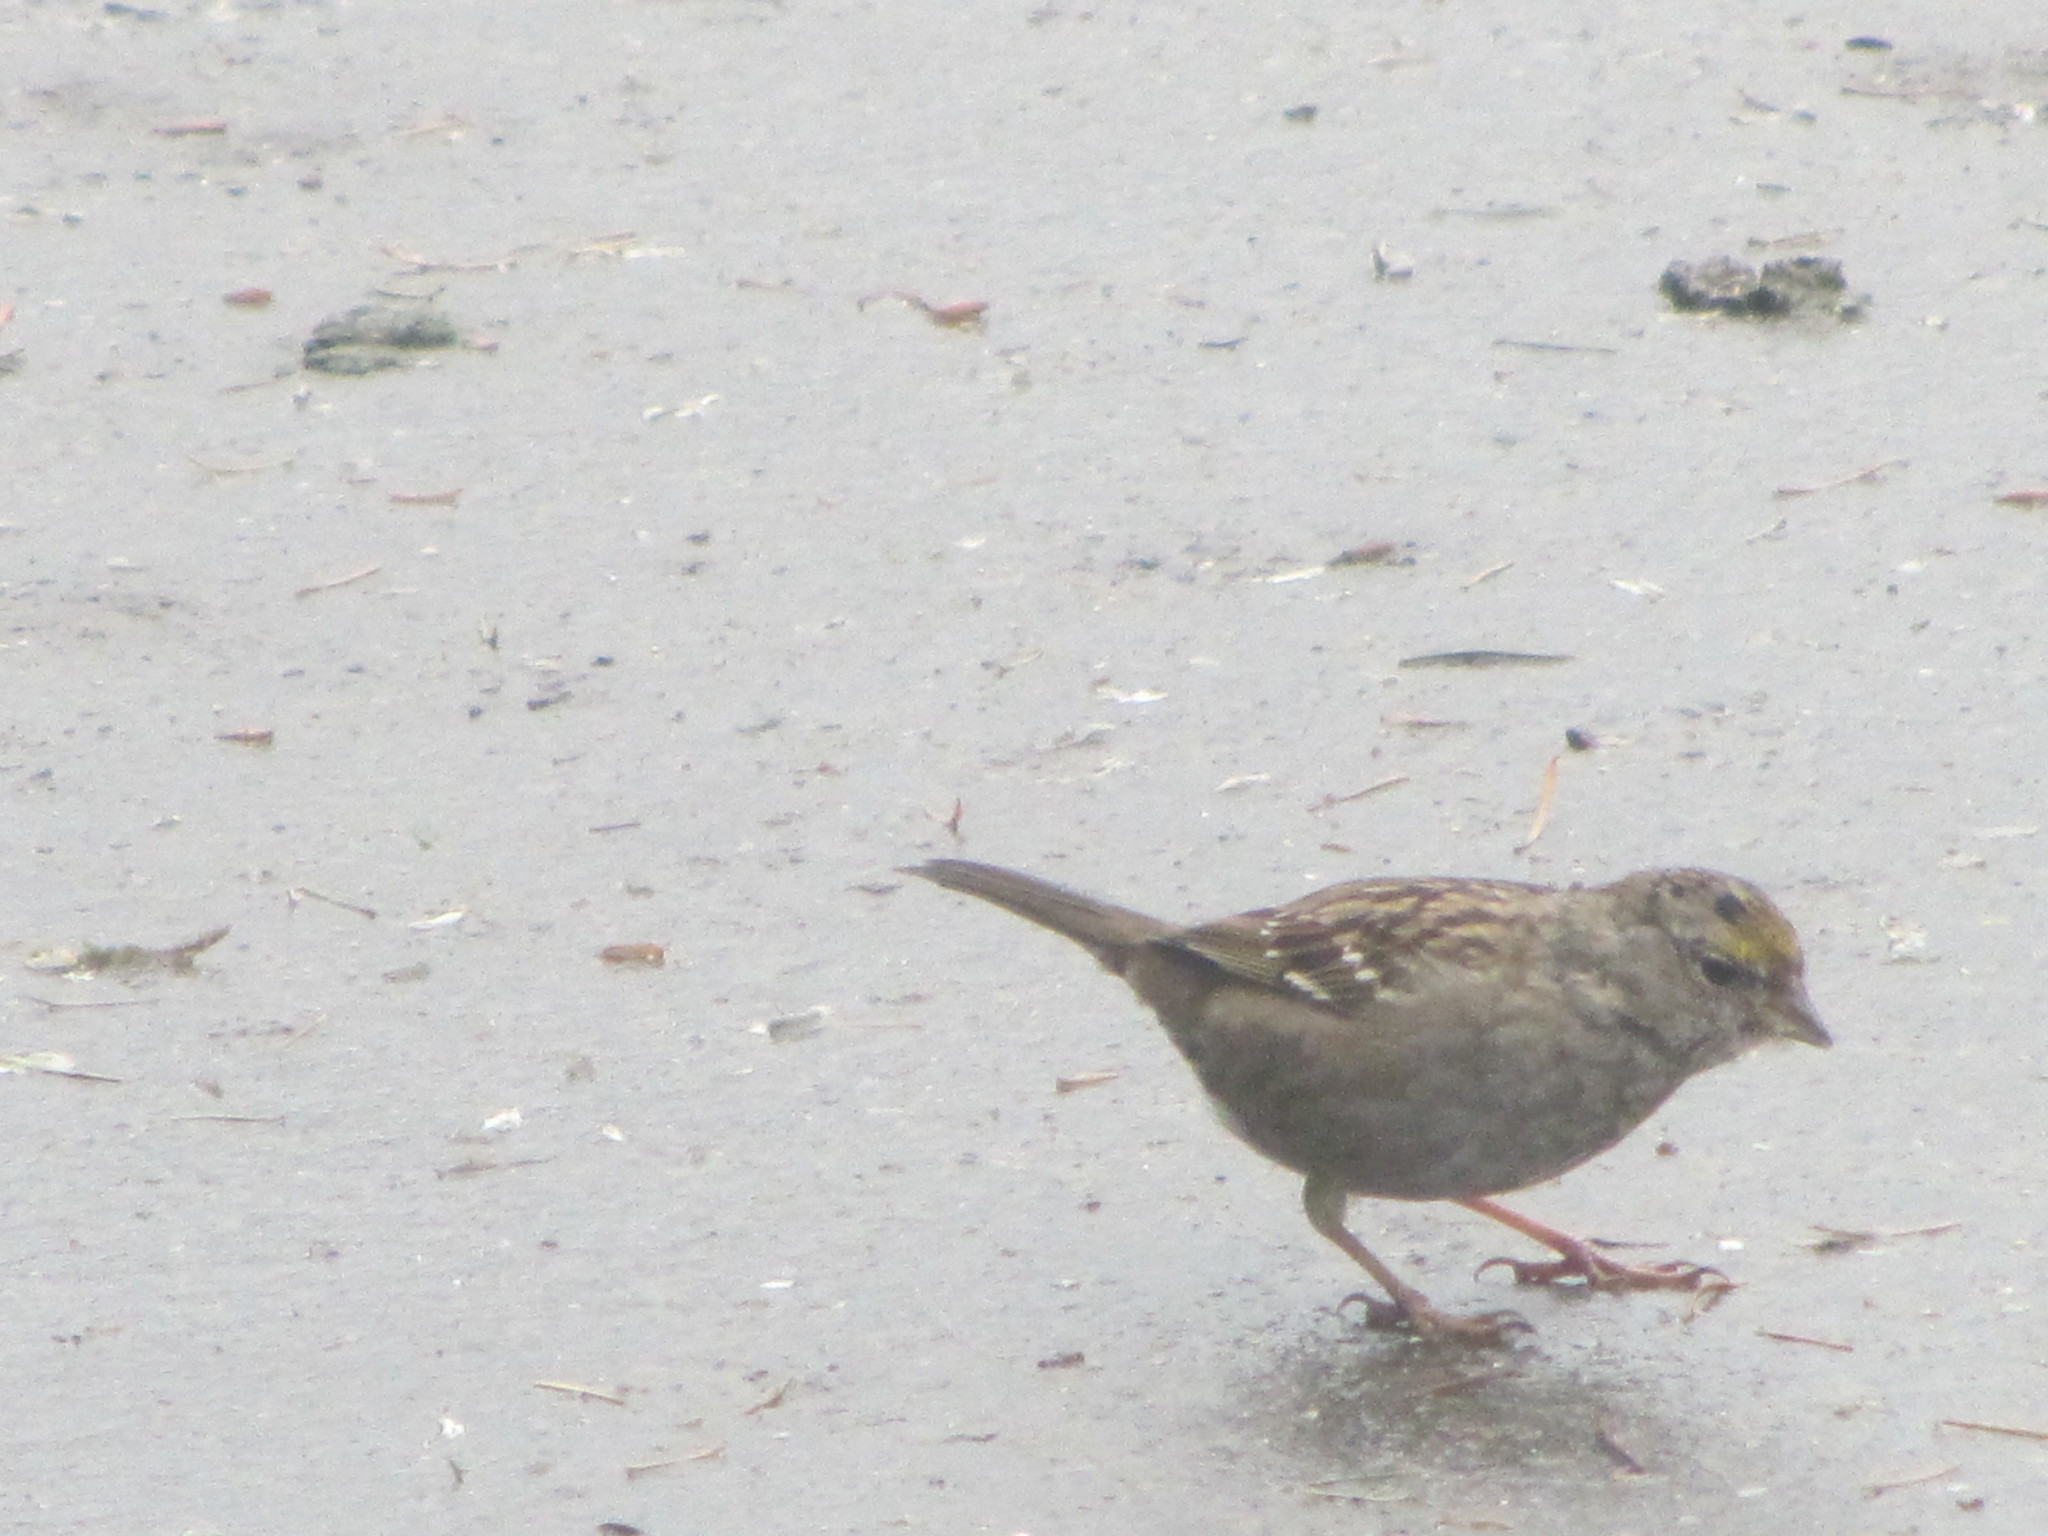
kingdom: Animalia
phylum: Chordata
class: Aves
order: Passeriformes
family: Passerellidae
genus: Zonotrichia
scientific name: Zonotrichia atricapilla
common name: Golden-crowned sparrow
